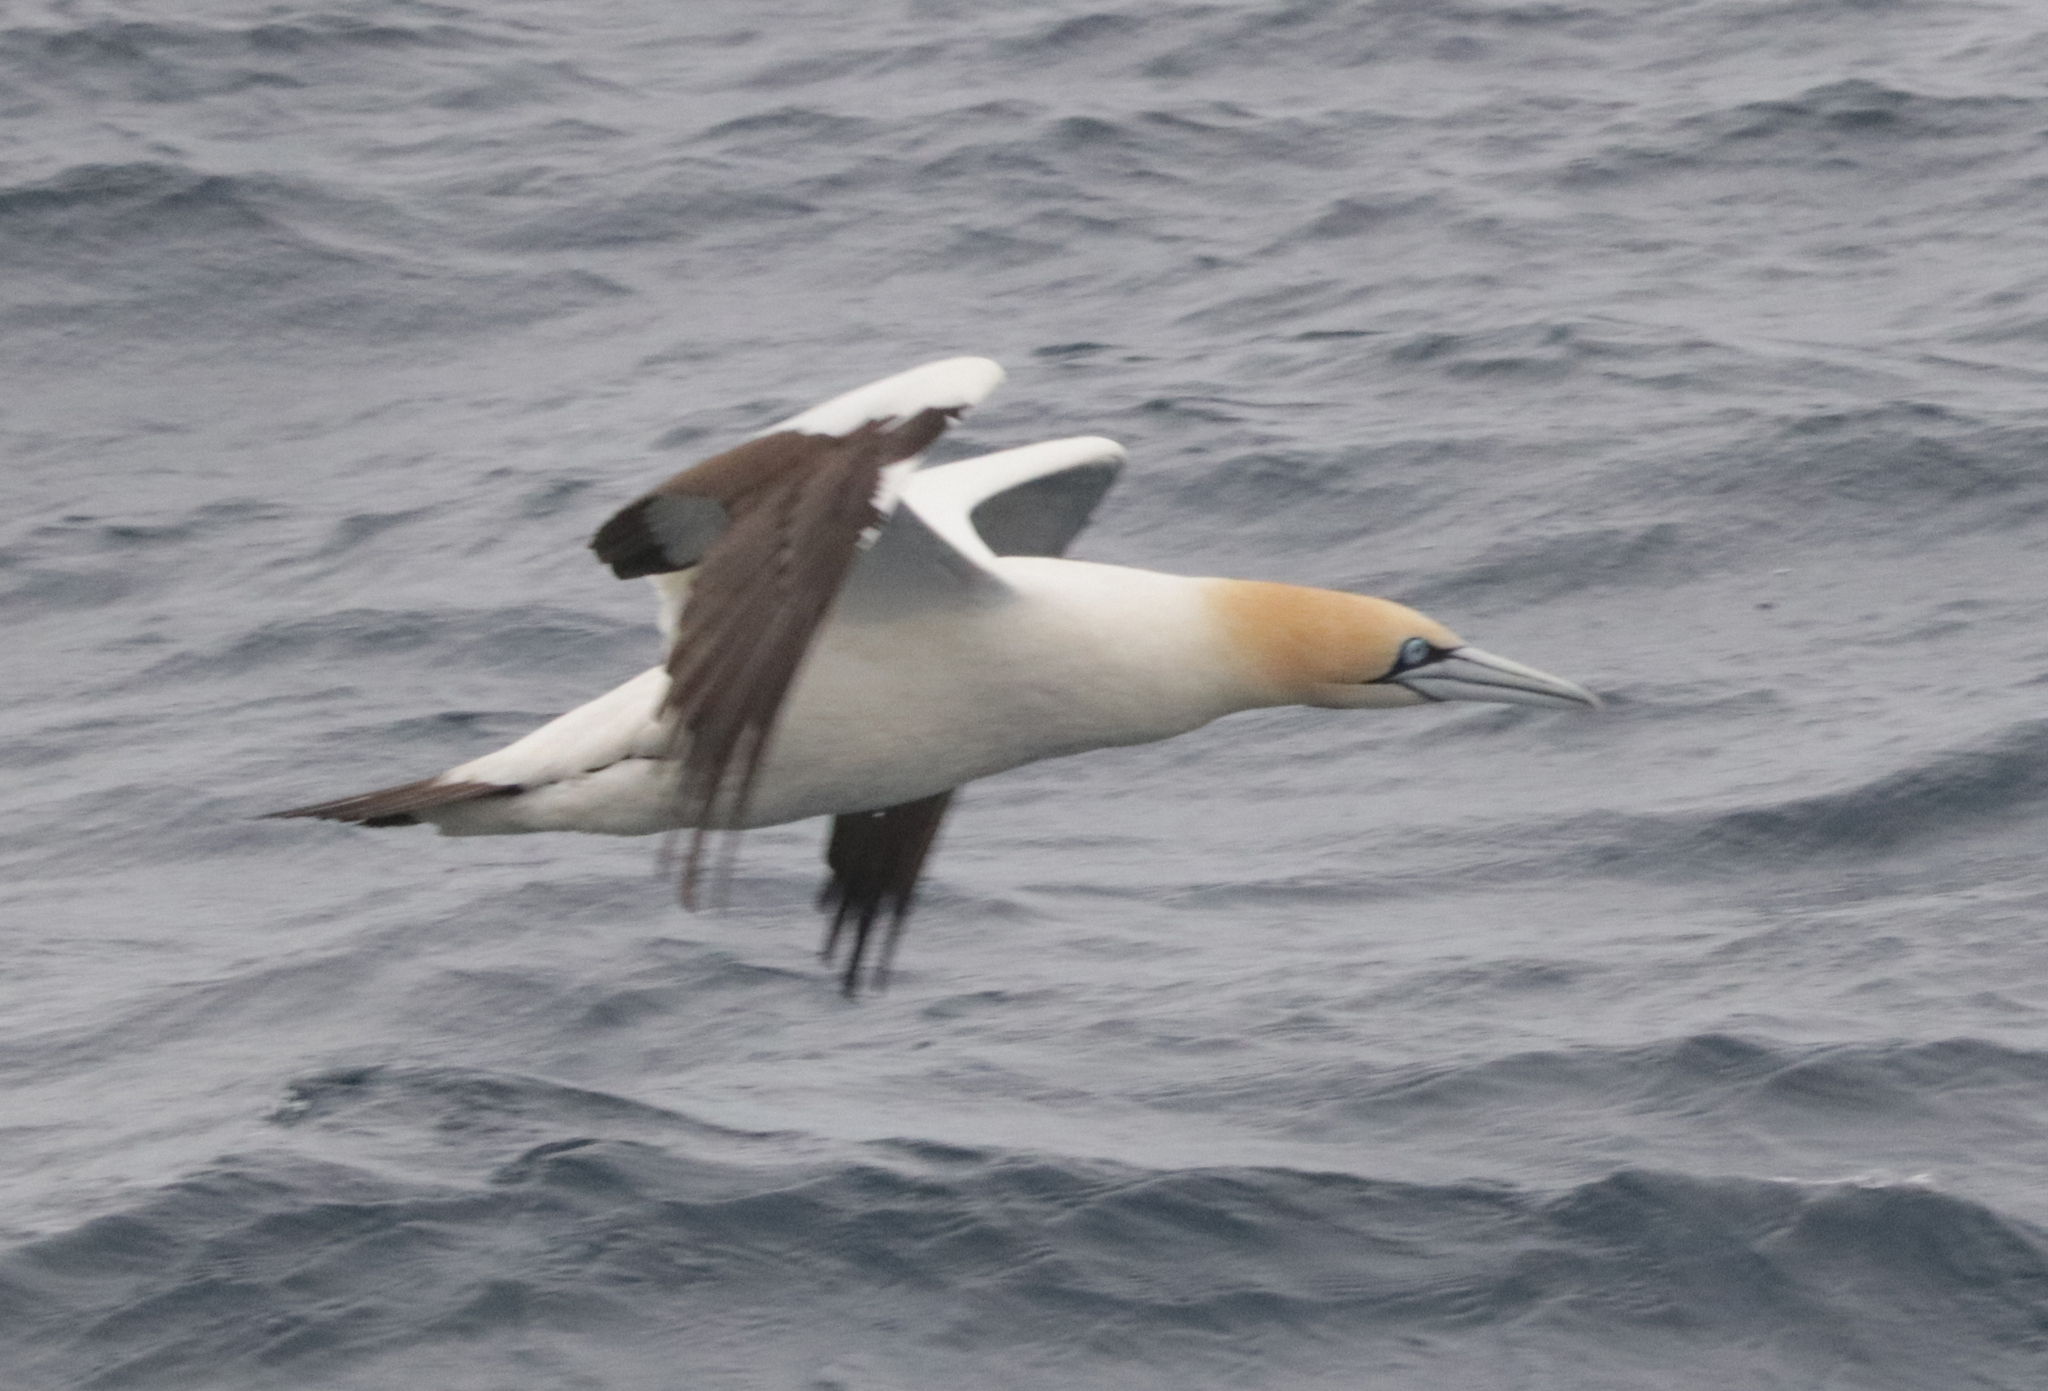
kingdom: Animalia
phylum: Chordata
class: Aves
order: Suliformes
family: Sulidae
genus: Morus
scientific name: Morus capensis
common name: Cape gannet
